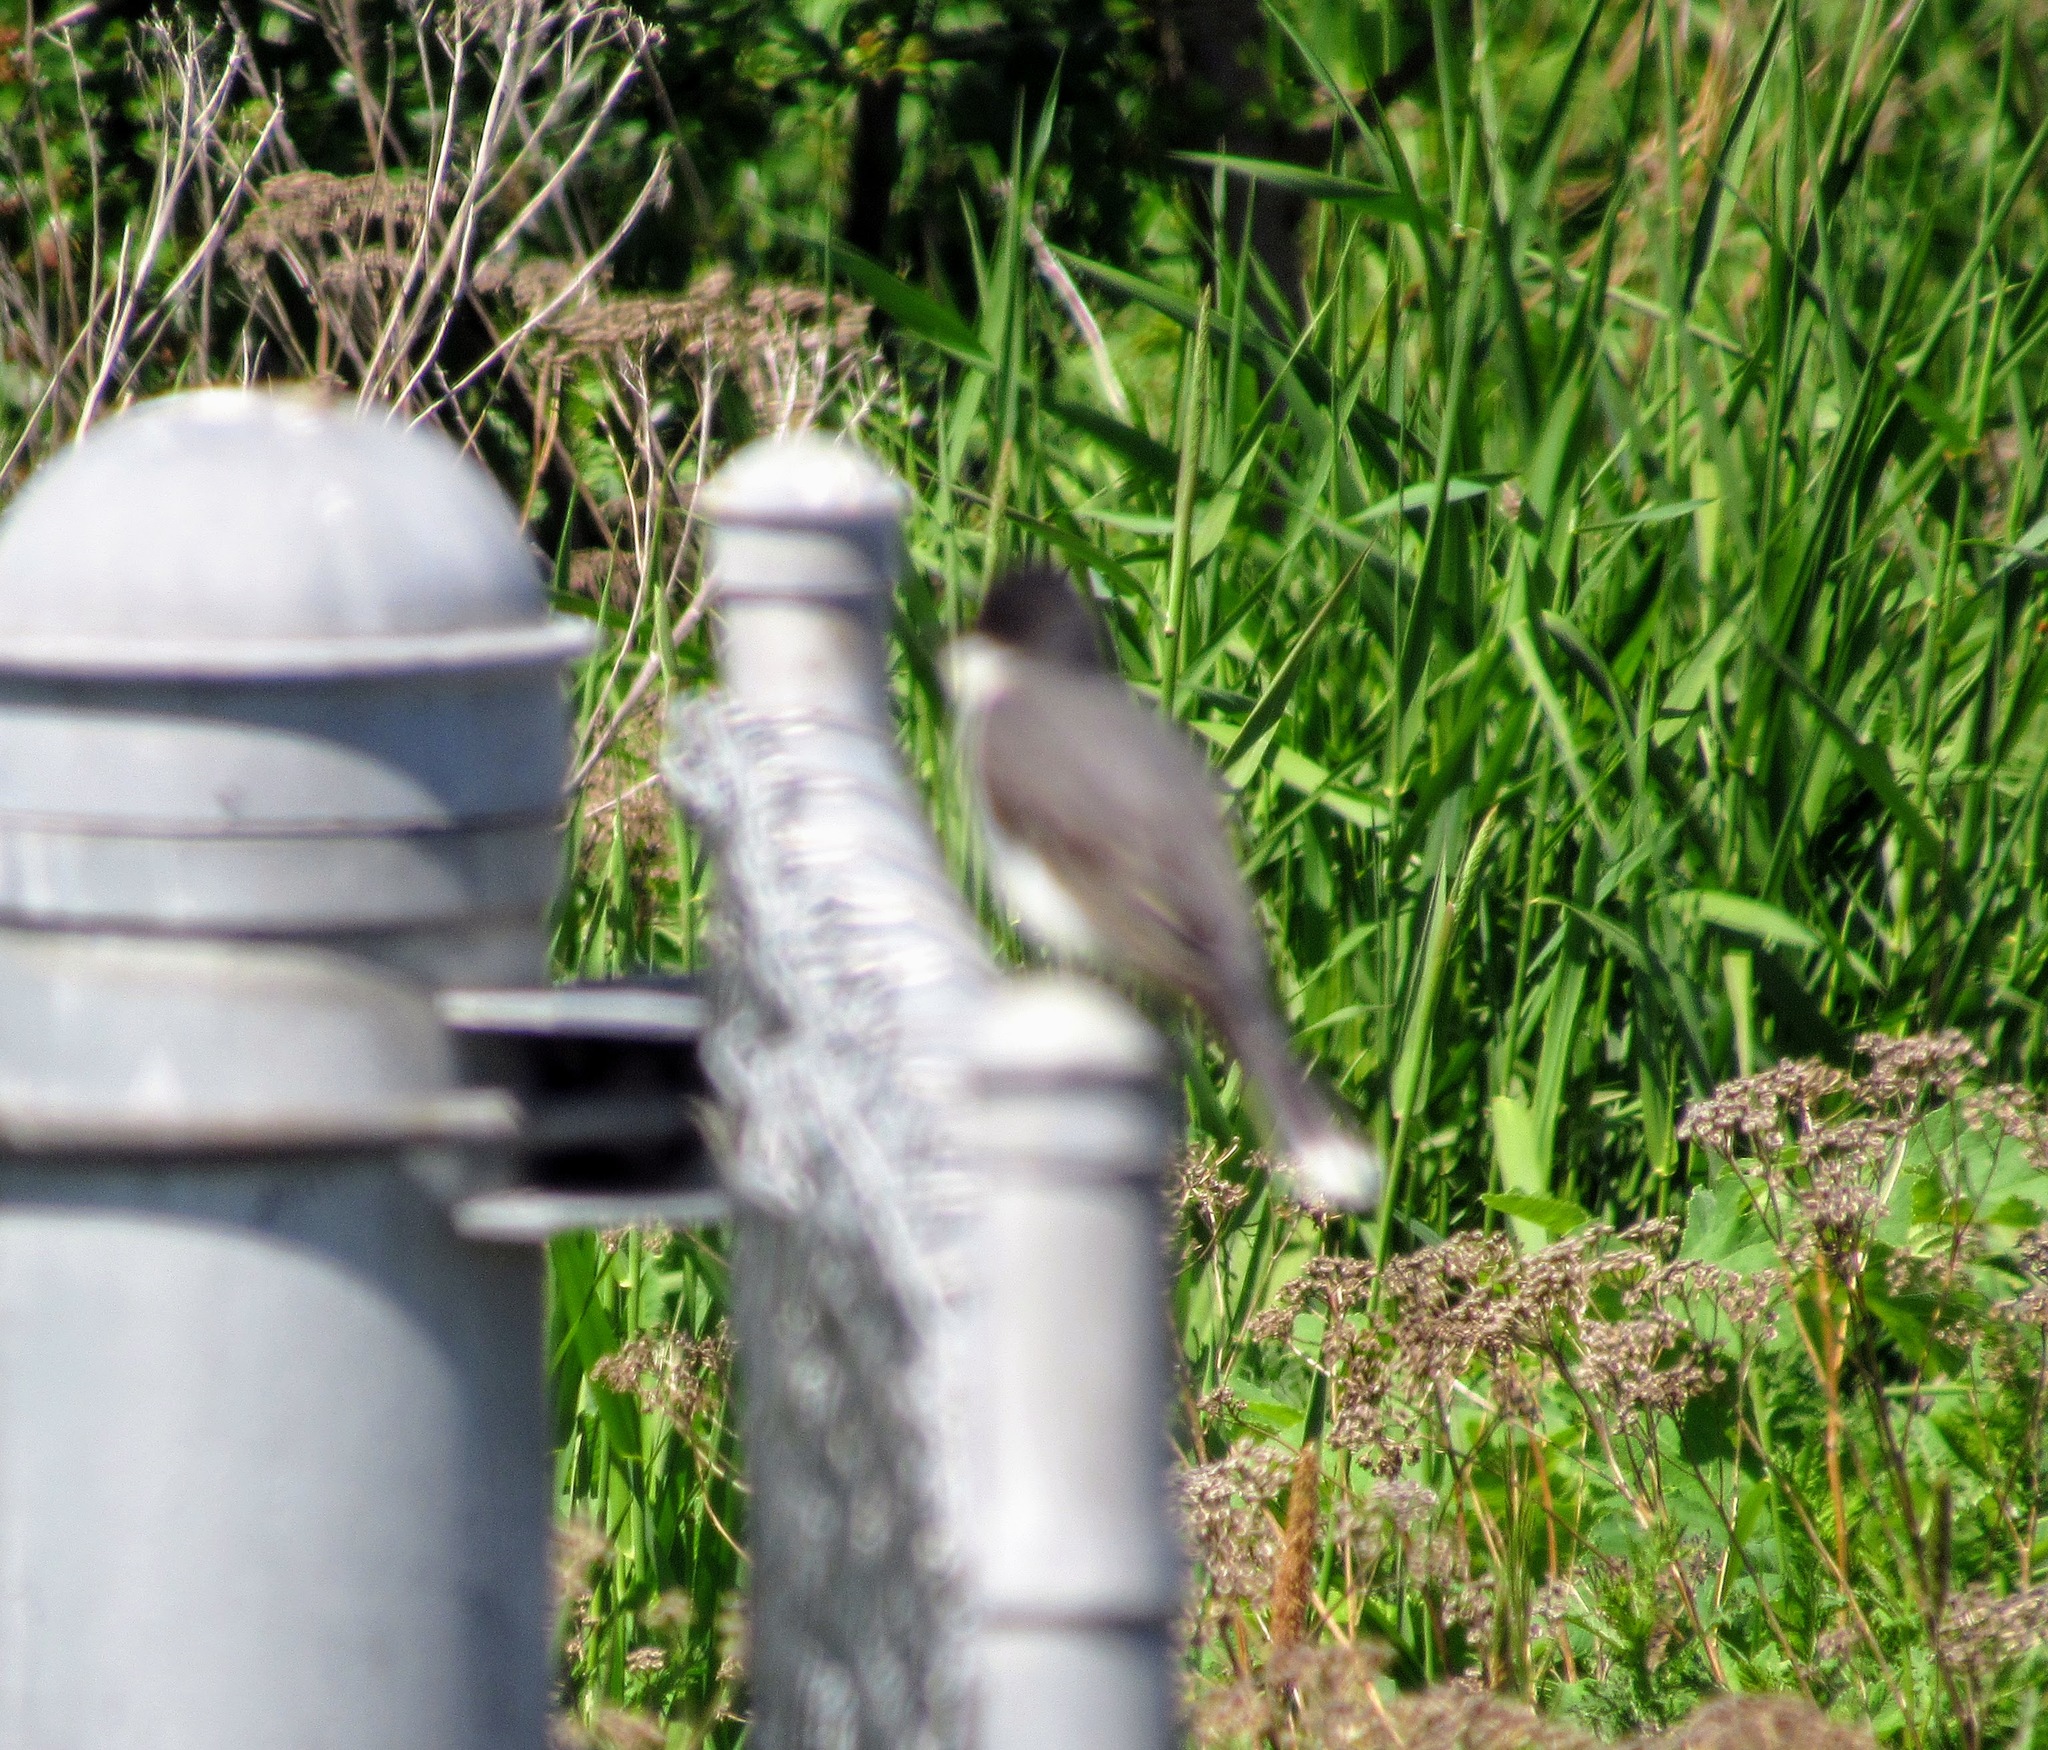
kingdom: Animalia
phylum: Chordata
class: Aves
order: Passeriformes
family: Tyrannidae
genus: Tyrannus
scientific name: Tyrannus tyrannus
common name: Eastern kingbird
